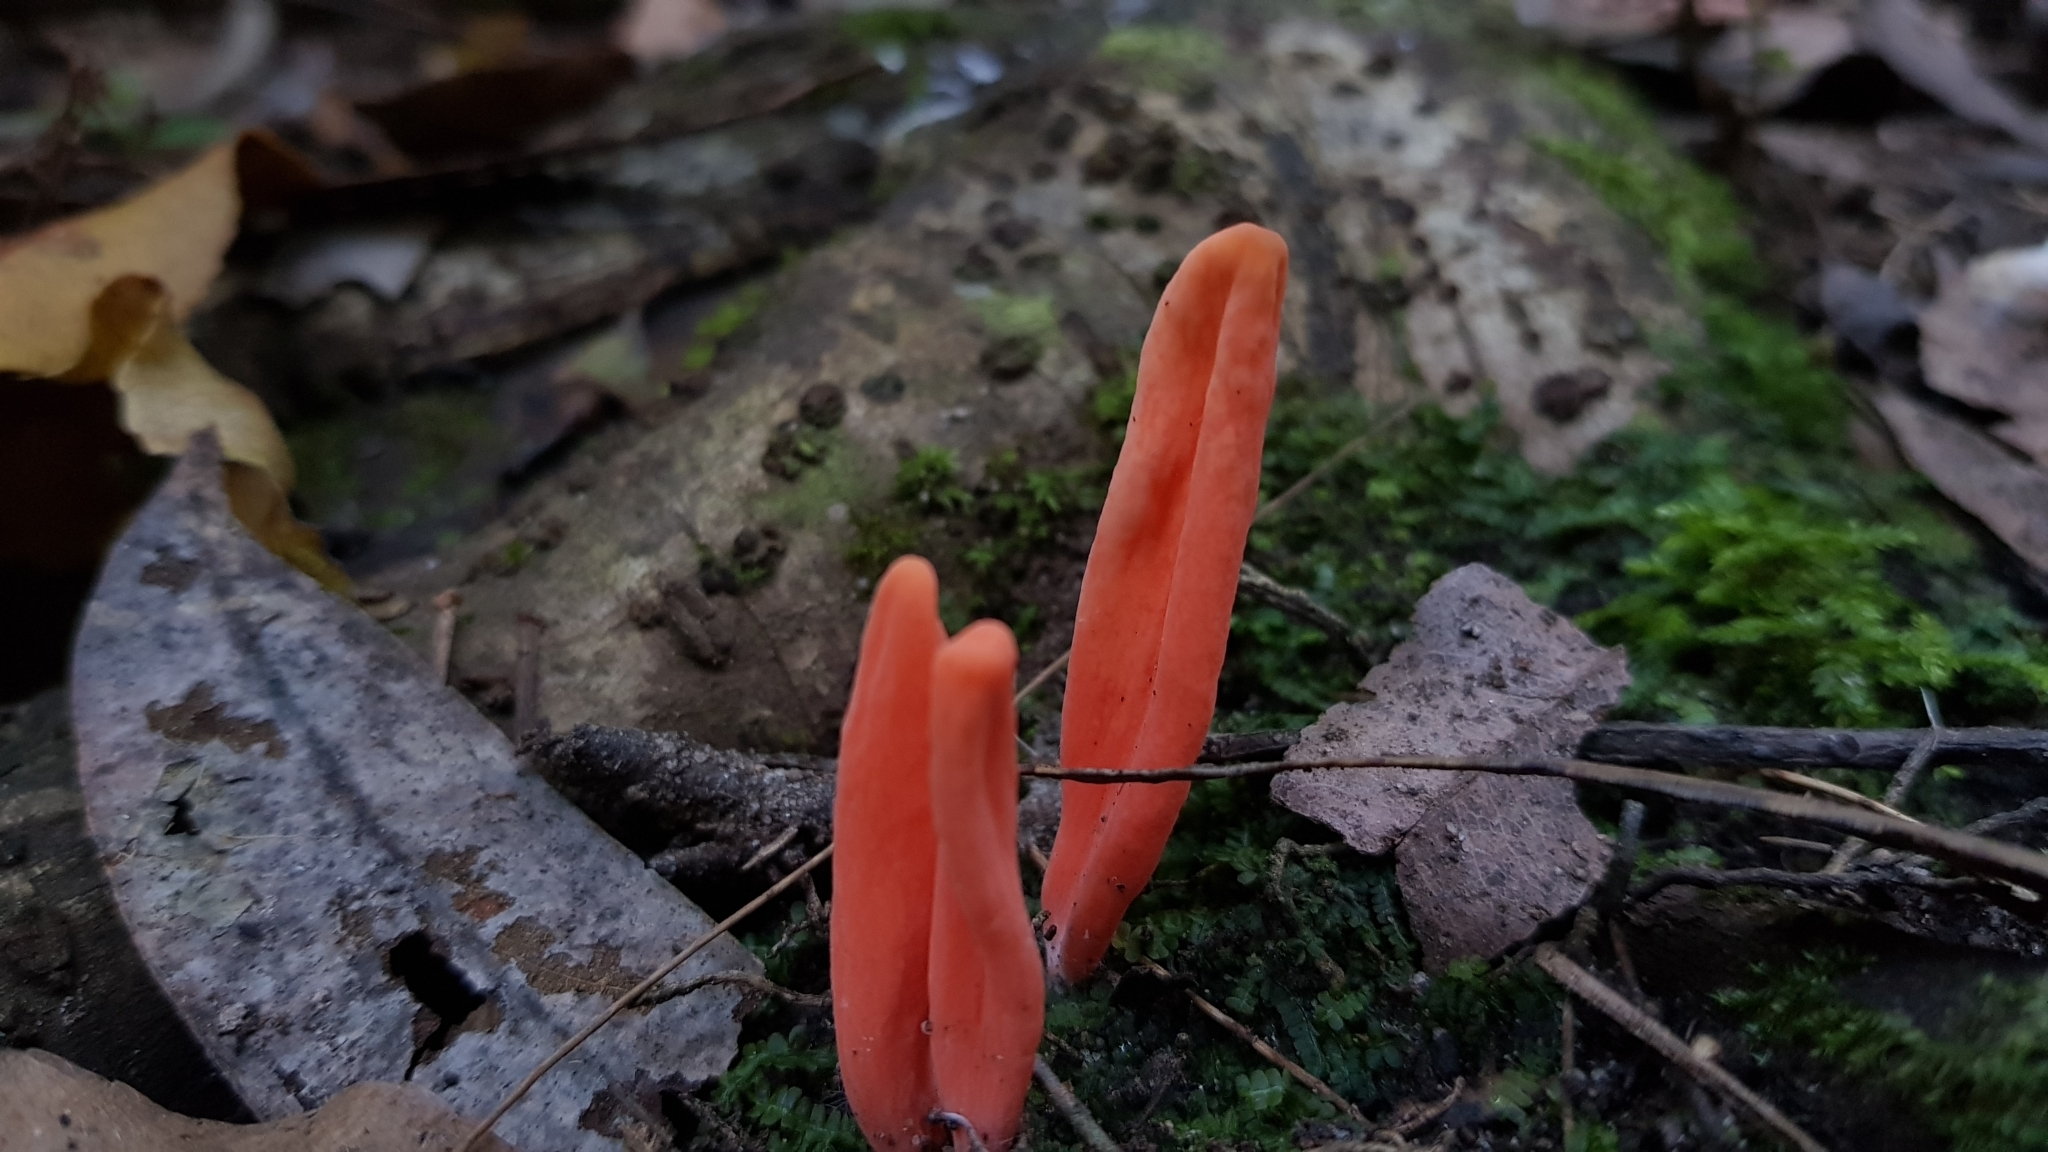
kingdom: Fungi
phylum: Basidiomycota
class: Agaricomycetes
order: Agaricales
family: Clavariaceae
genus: Clavulinopsis
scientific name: Clavulinopsis sulcata
